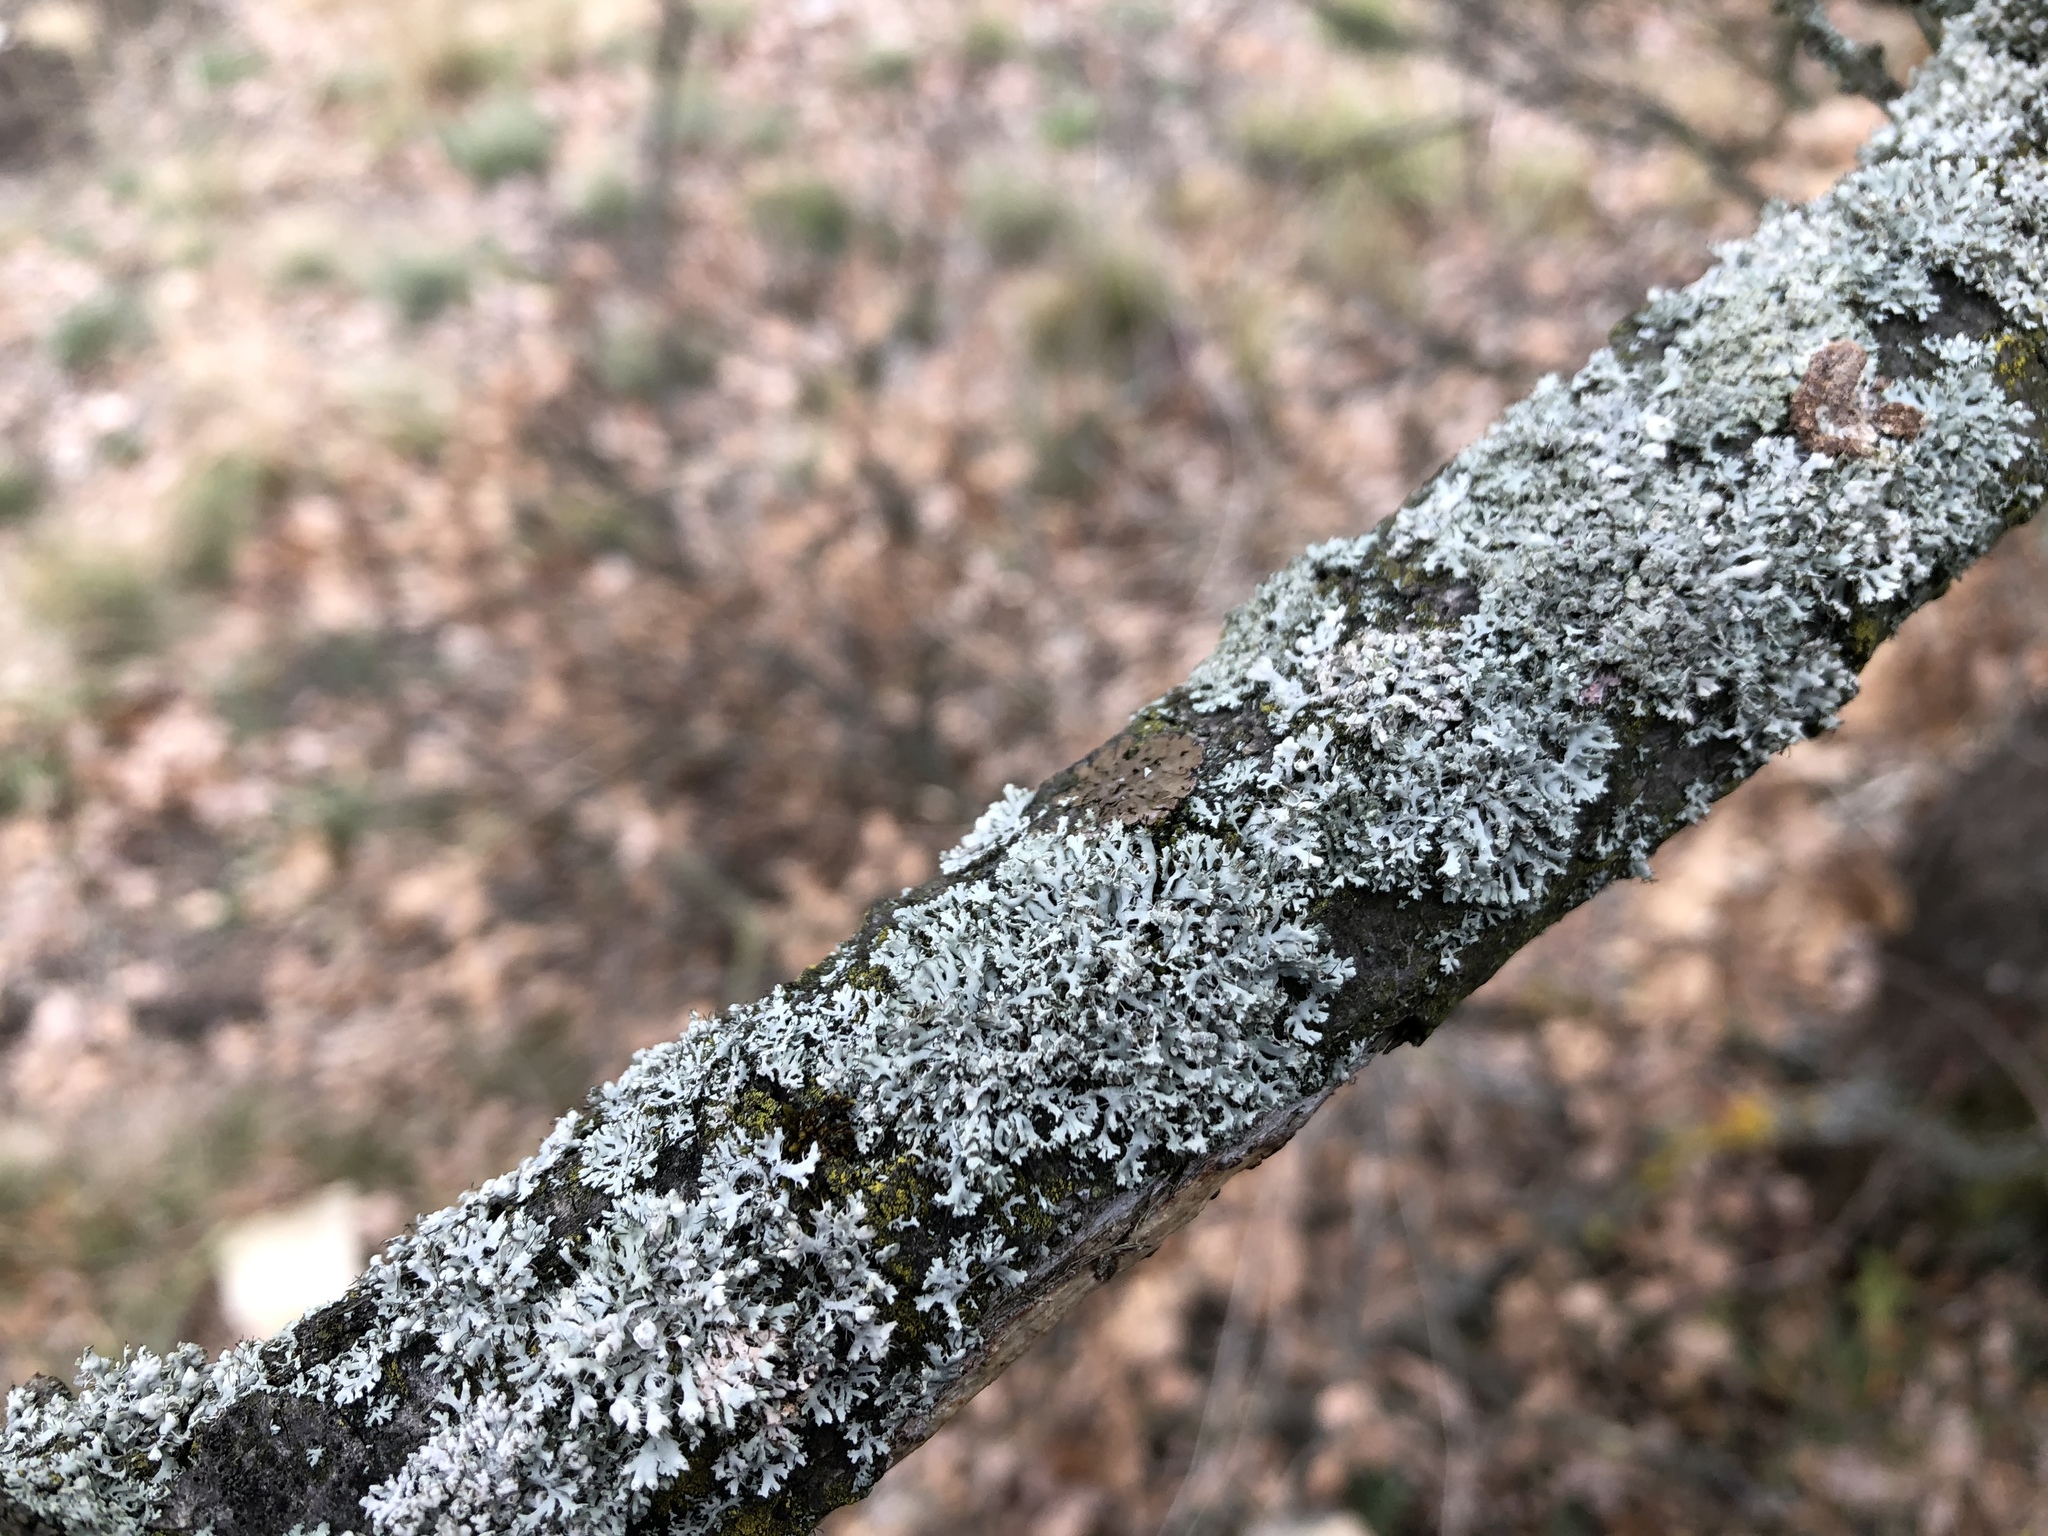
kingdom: Fungi
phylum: Ascomycota
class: Lecanoromycetes
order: Caliciales
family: Physciaceae
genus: Physcia
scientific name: Physcia adscendens
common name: Hooded rosette lichen
